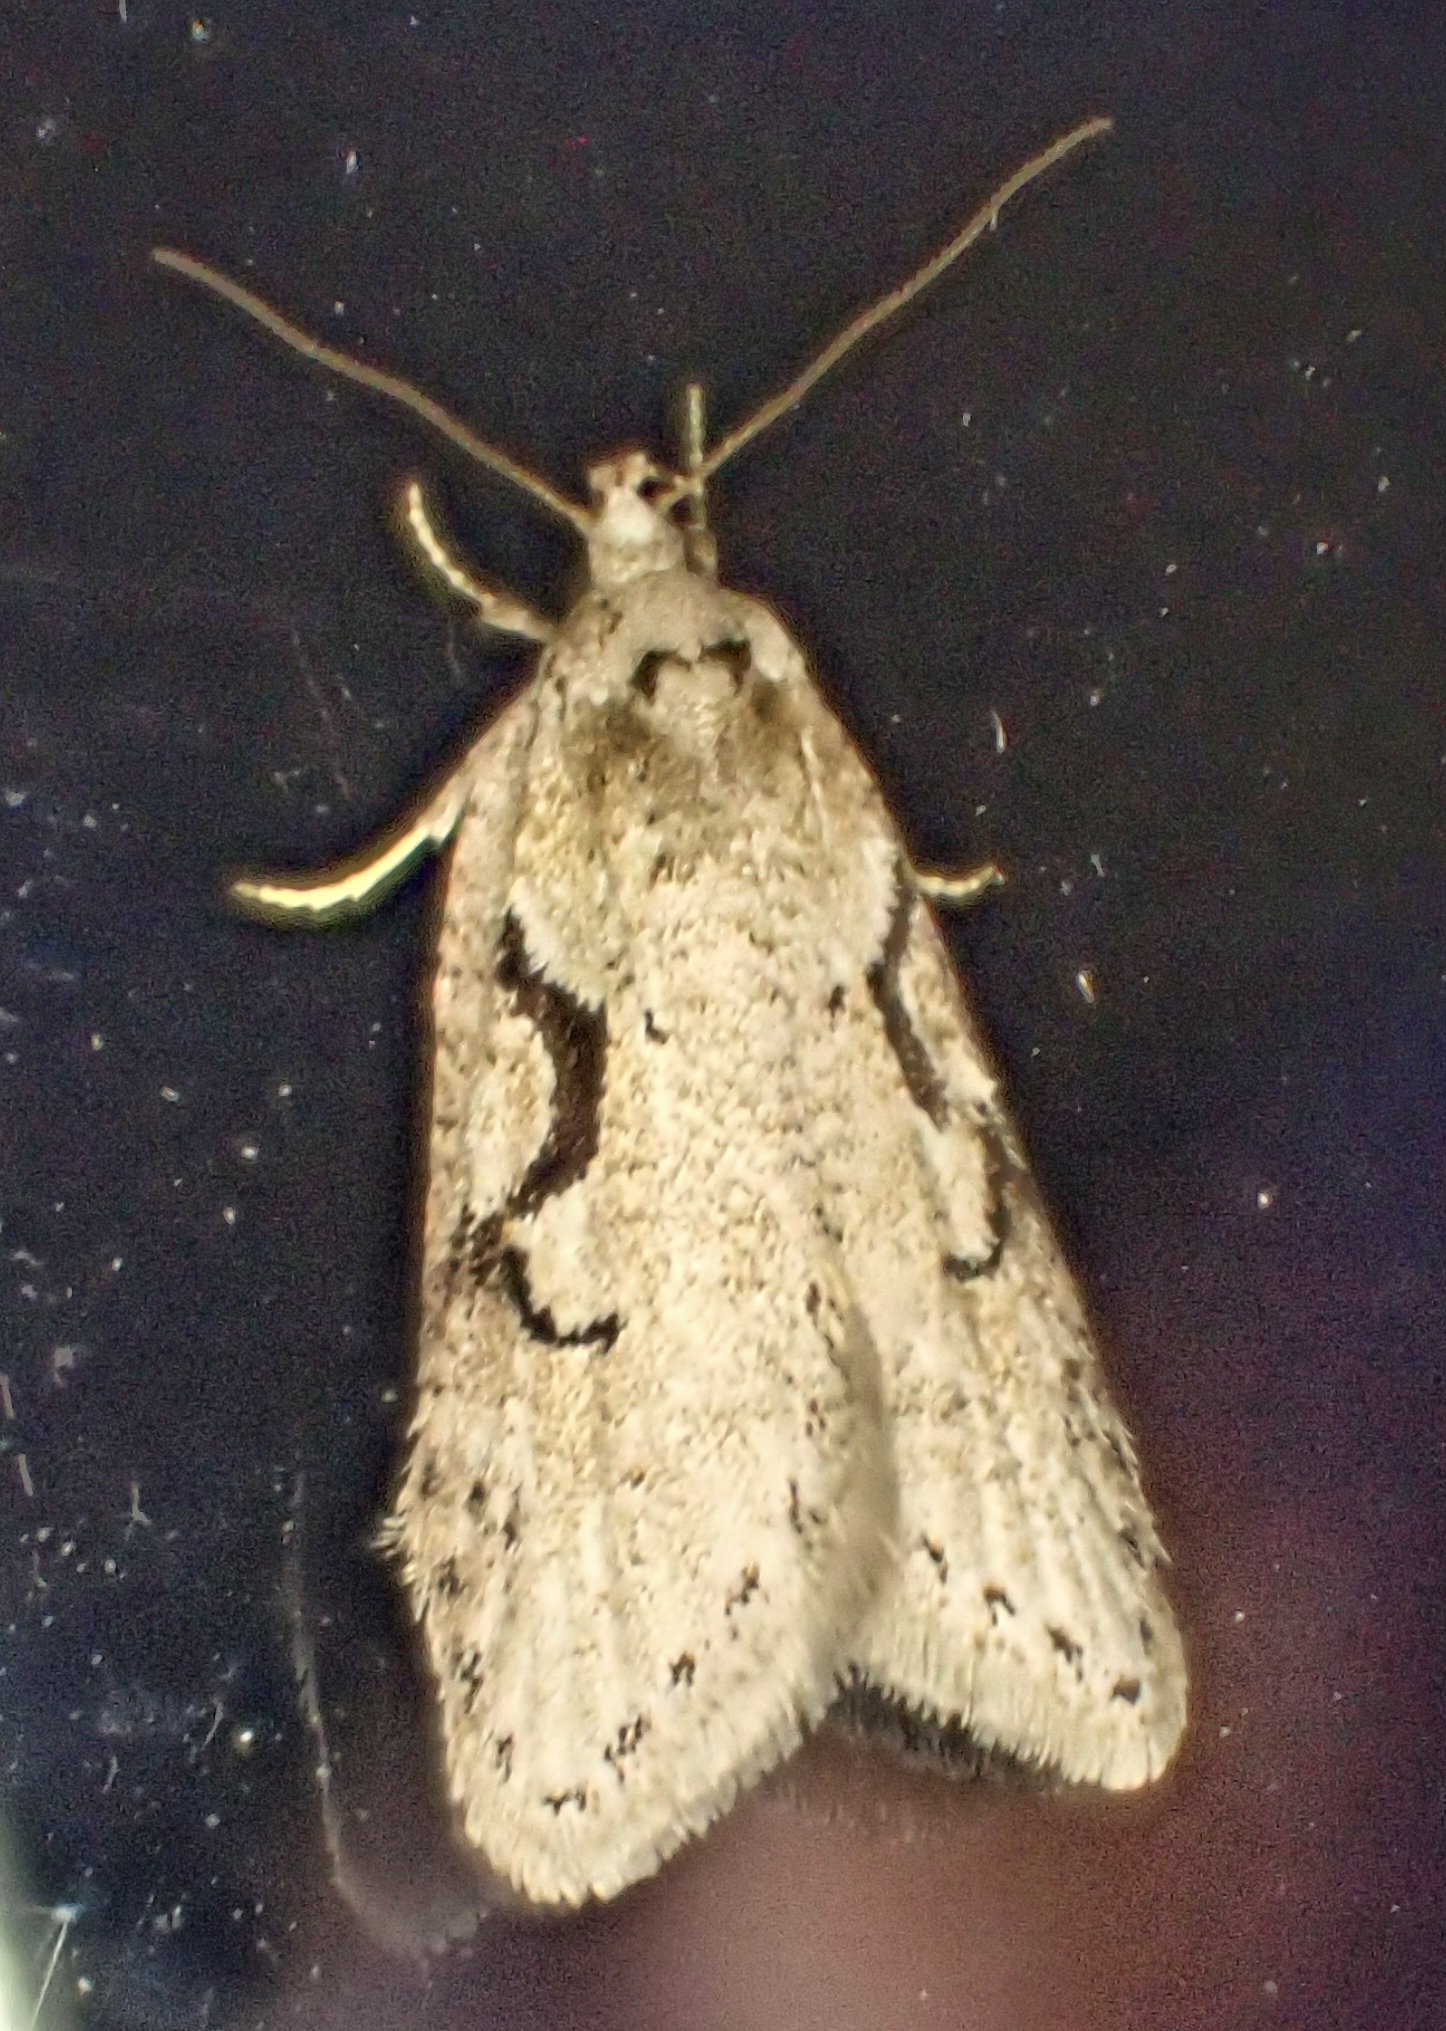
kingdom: Animalia
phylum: Arthropoda
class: Insecta
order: Lepidoptera
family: Depressariidae
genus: Semioscopis
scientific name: Semioscopis steinkellneriana
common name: Dawn flat-body
